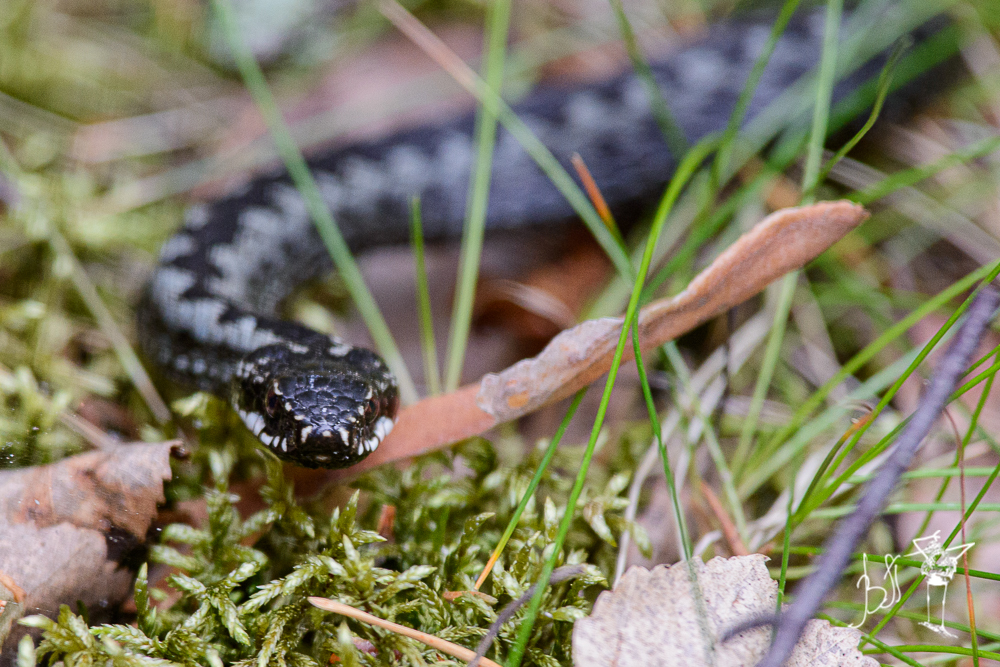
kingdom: Animalia
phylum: Chordata
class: Squamata
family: Viperidae
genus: Vipera
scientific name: Vipera berus
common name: Adder
